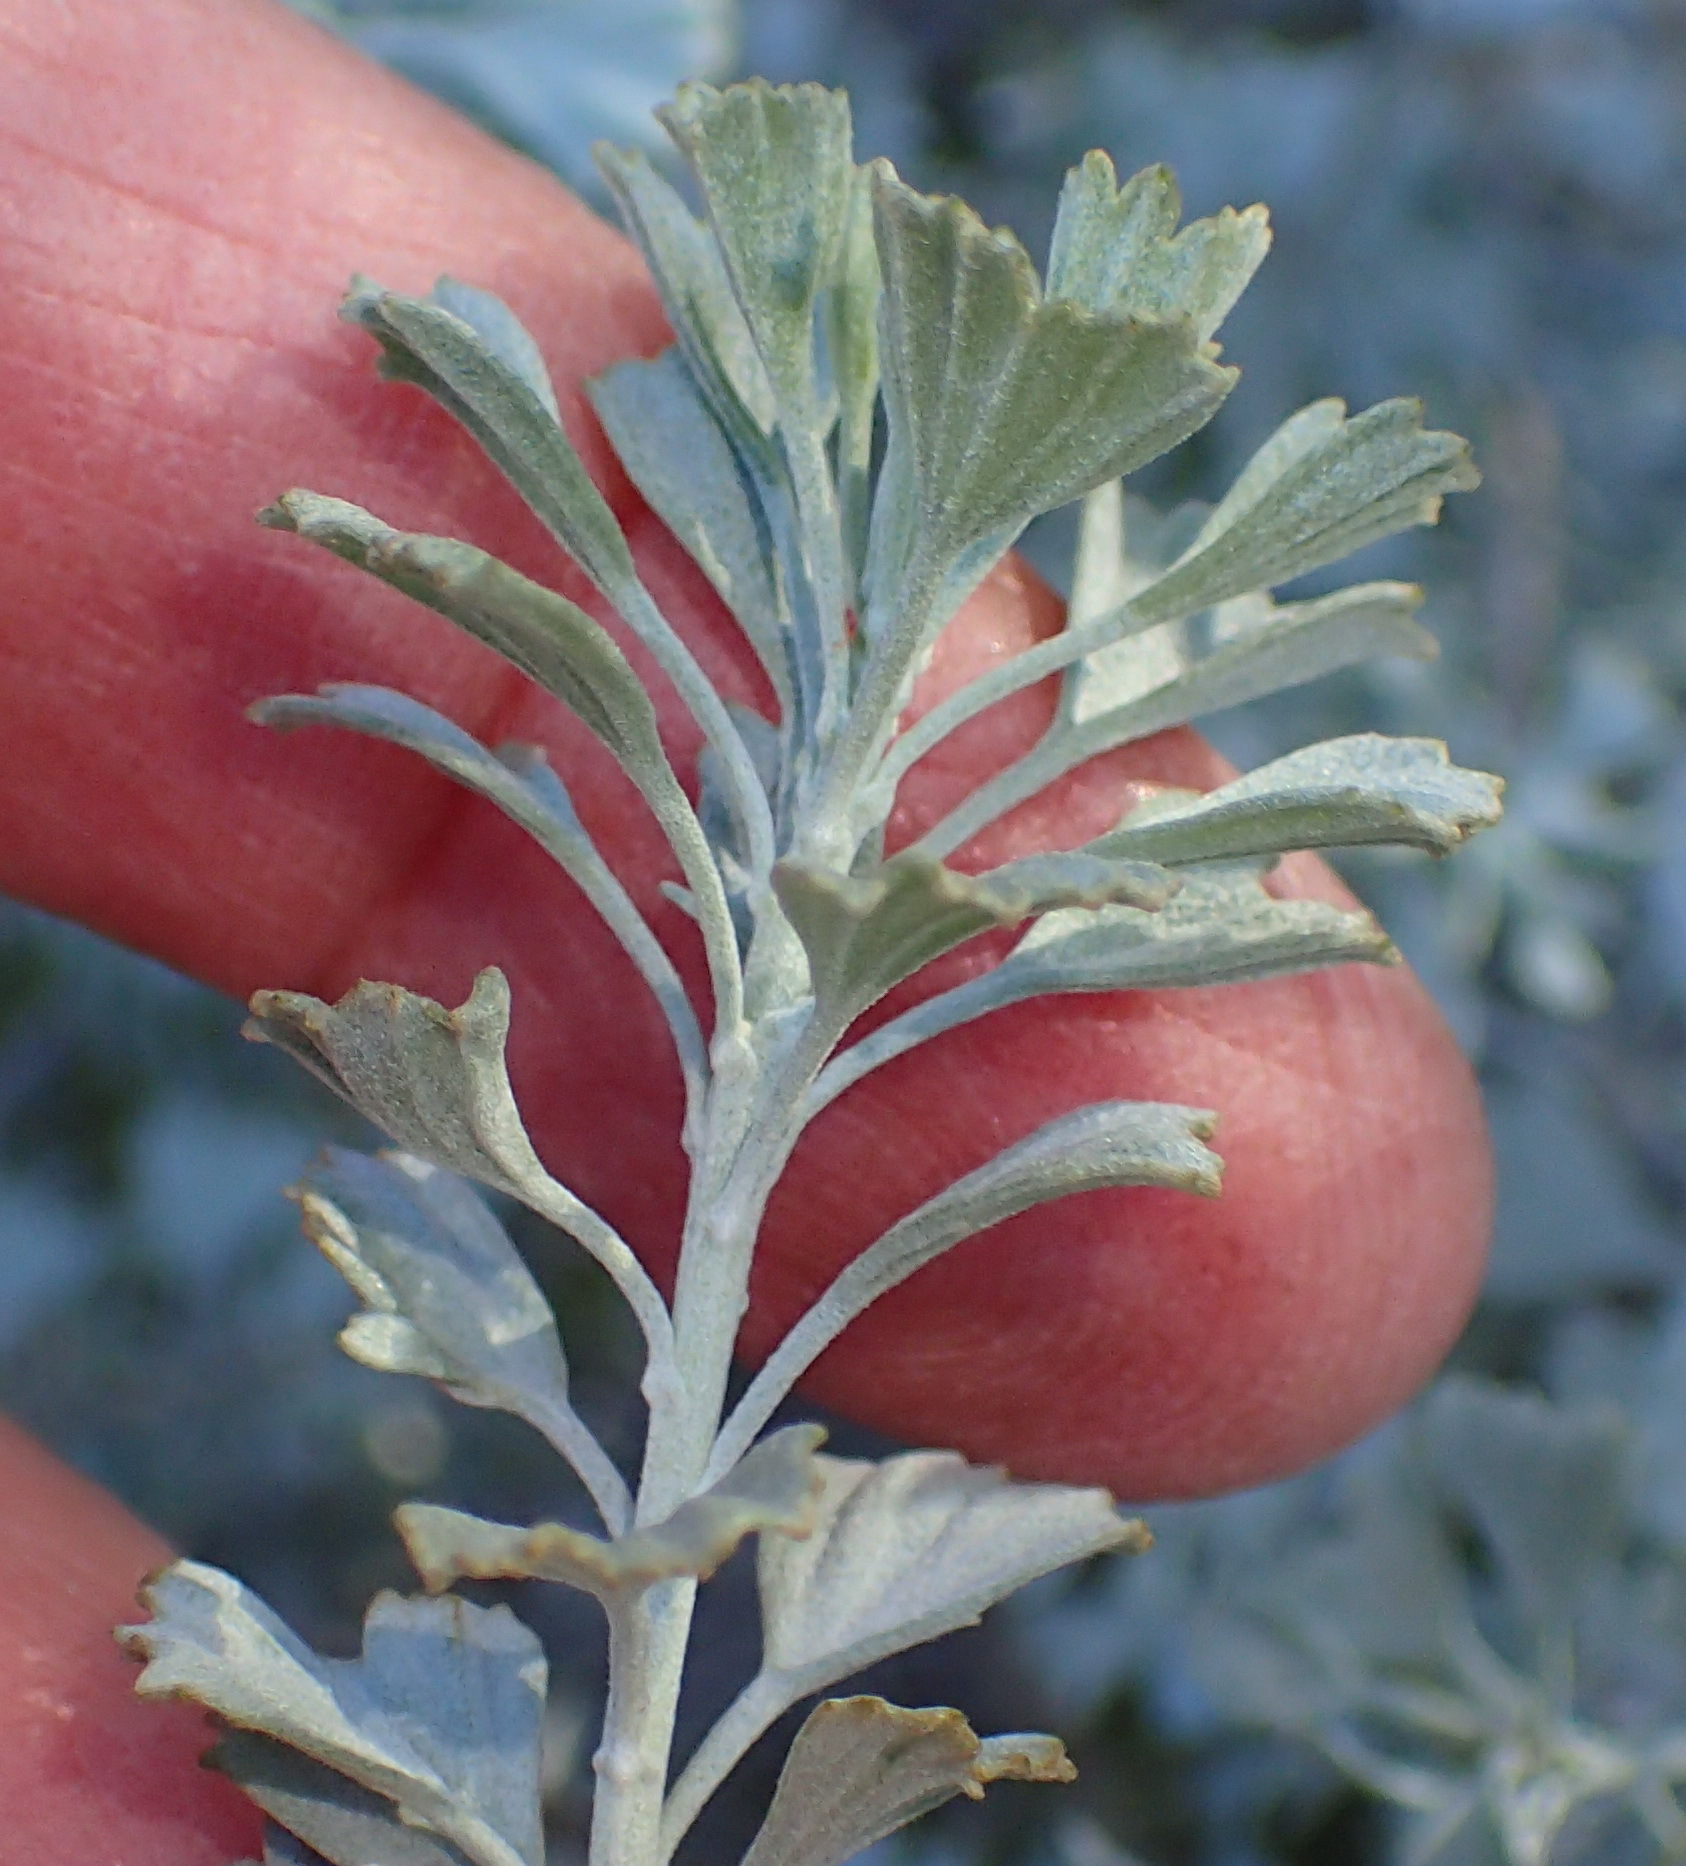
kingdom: Plantae
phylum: Tracheophyta
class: Magnoliopsida
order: Asterales
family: Asteraceae
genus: Pentzia
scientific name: Pentzia dentata
